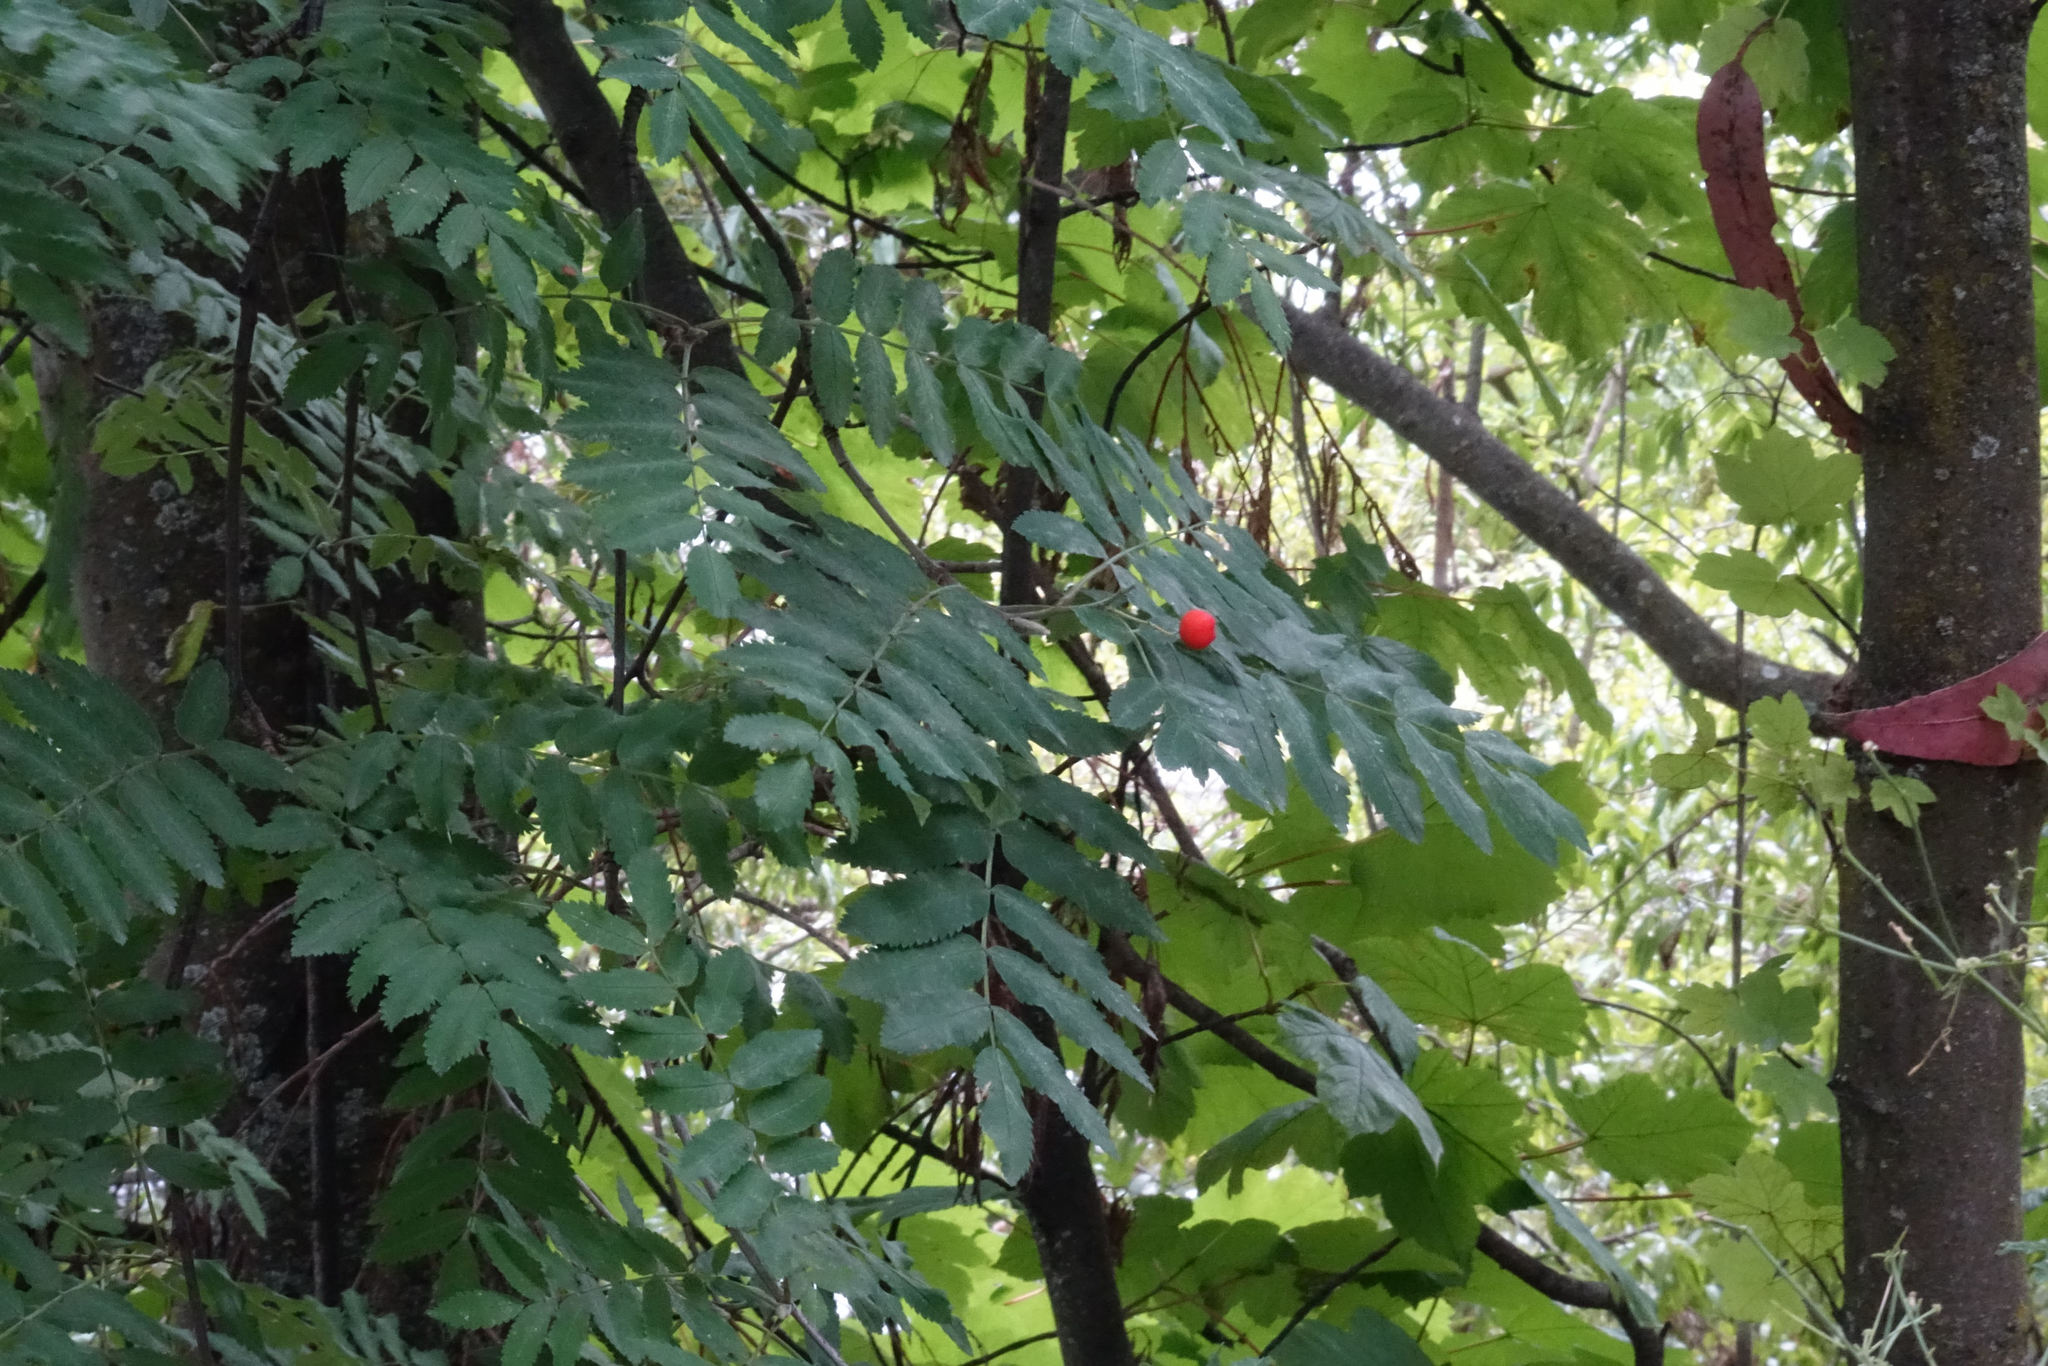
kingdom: Plantae
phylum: Tracheophyta
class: Magnoliopsida
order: Rosales
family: Rosaceae
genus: Sorbus
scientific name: Sorbus aucuparia
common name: Rowan
